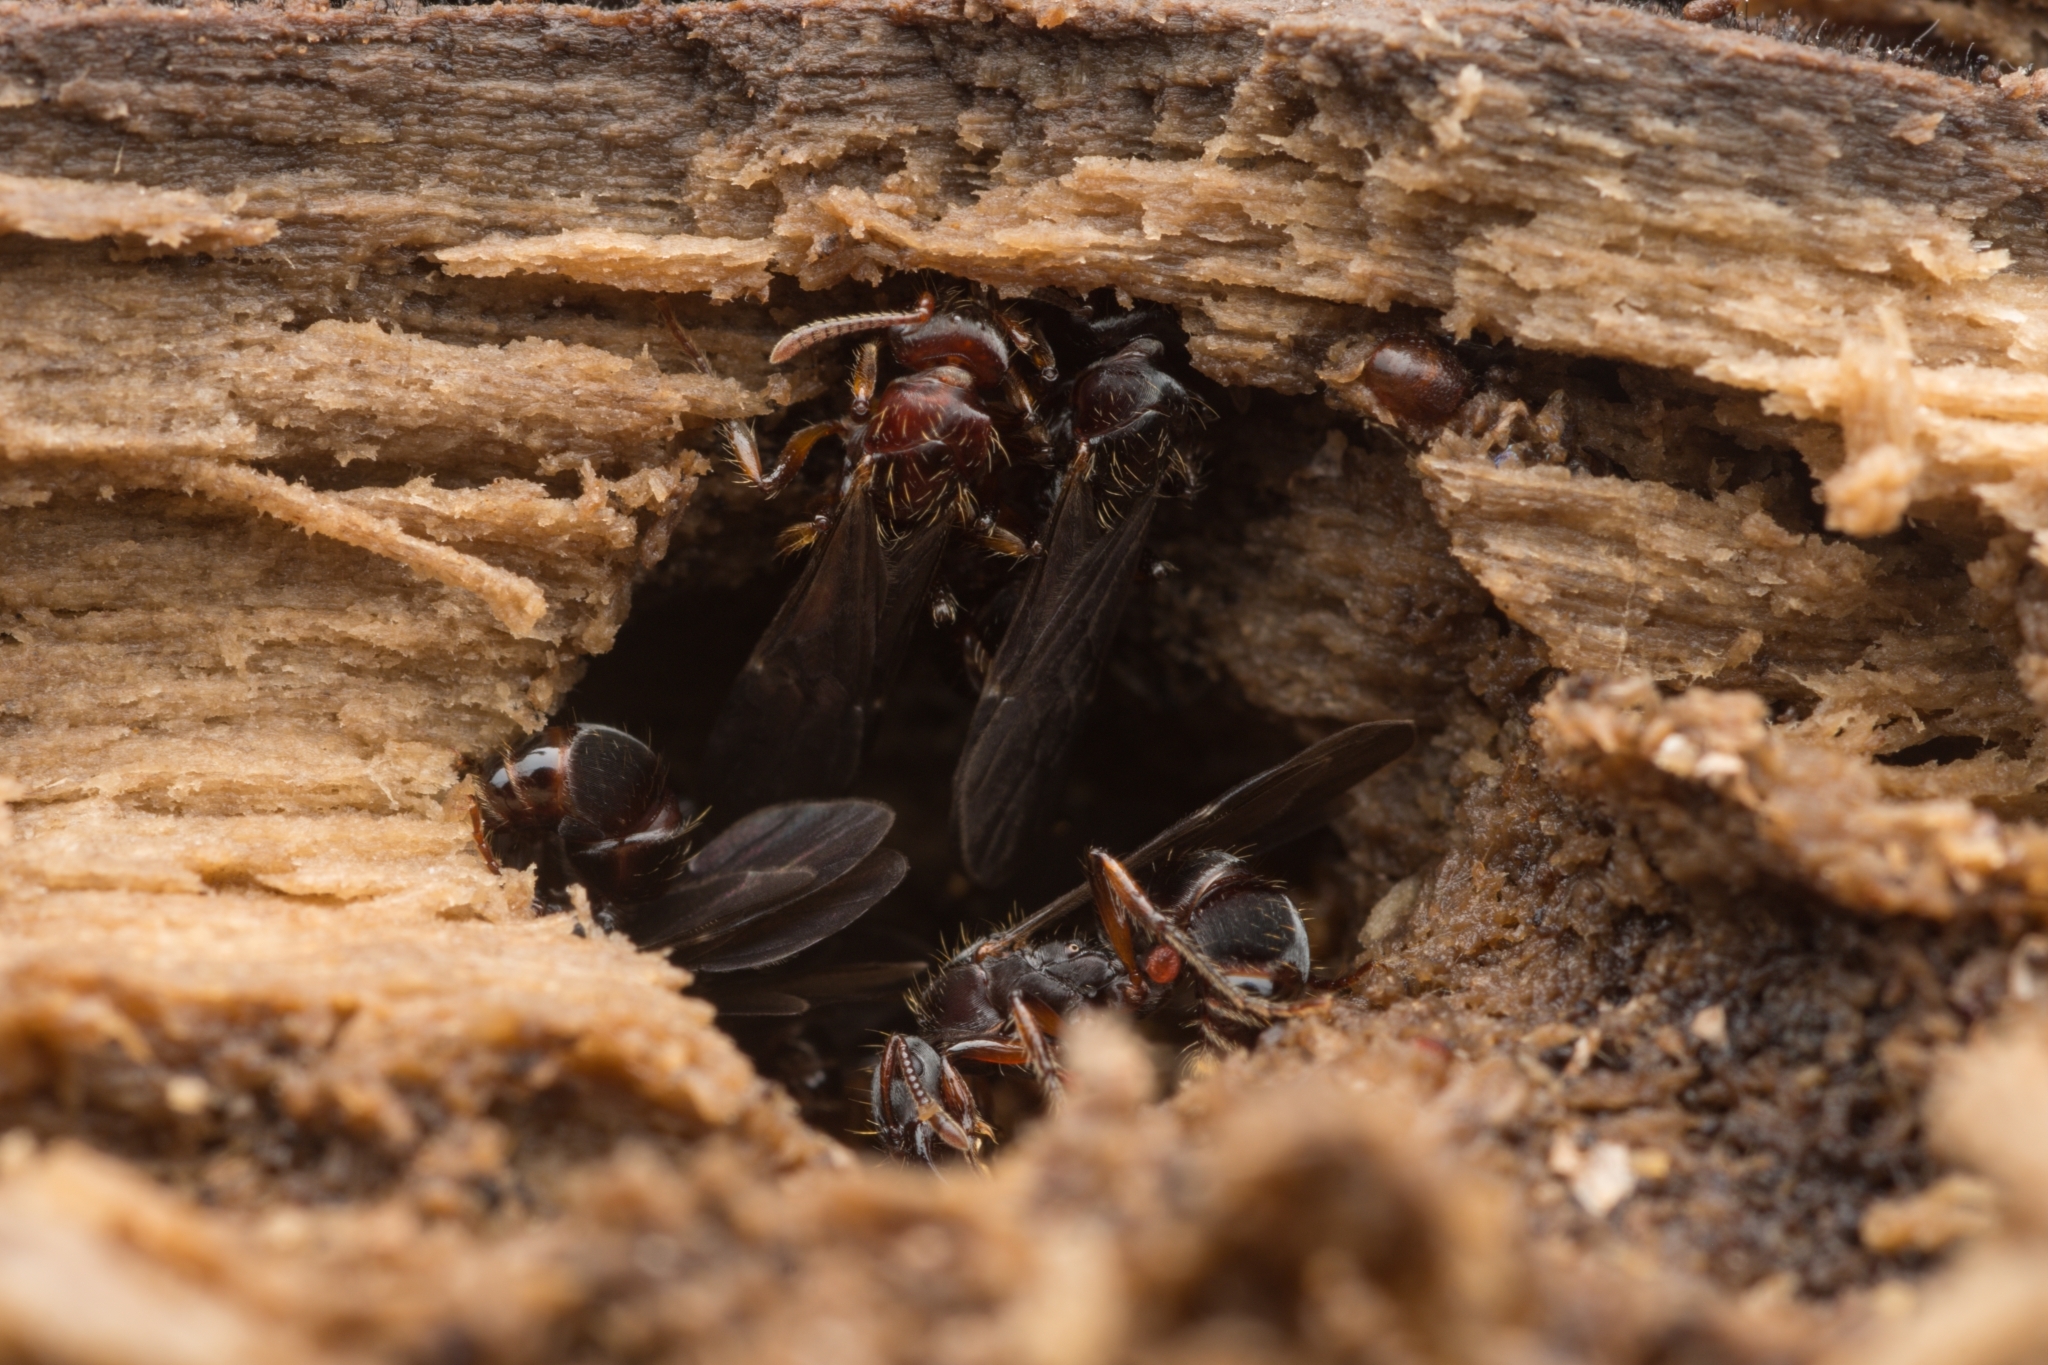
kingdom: Animalia
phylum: Arthropoda
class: Insecta
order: Hymenoptera
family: Formicidae
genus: Gnamptogenys
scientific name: Gnamptogenys annulata
